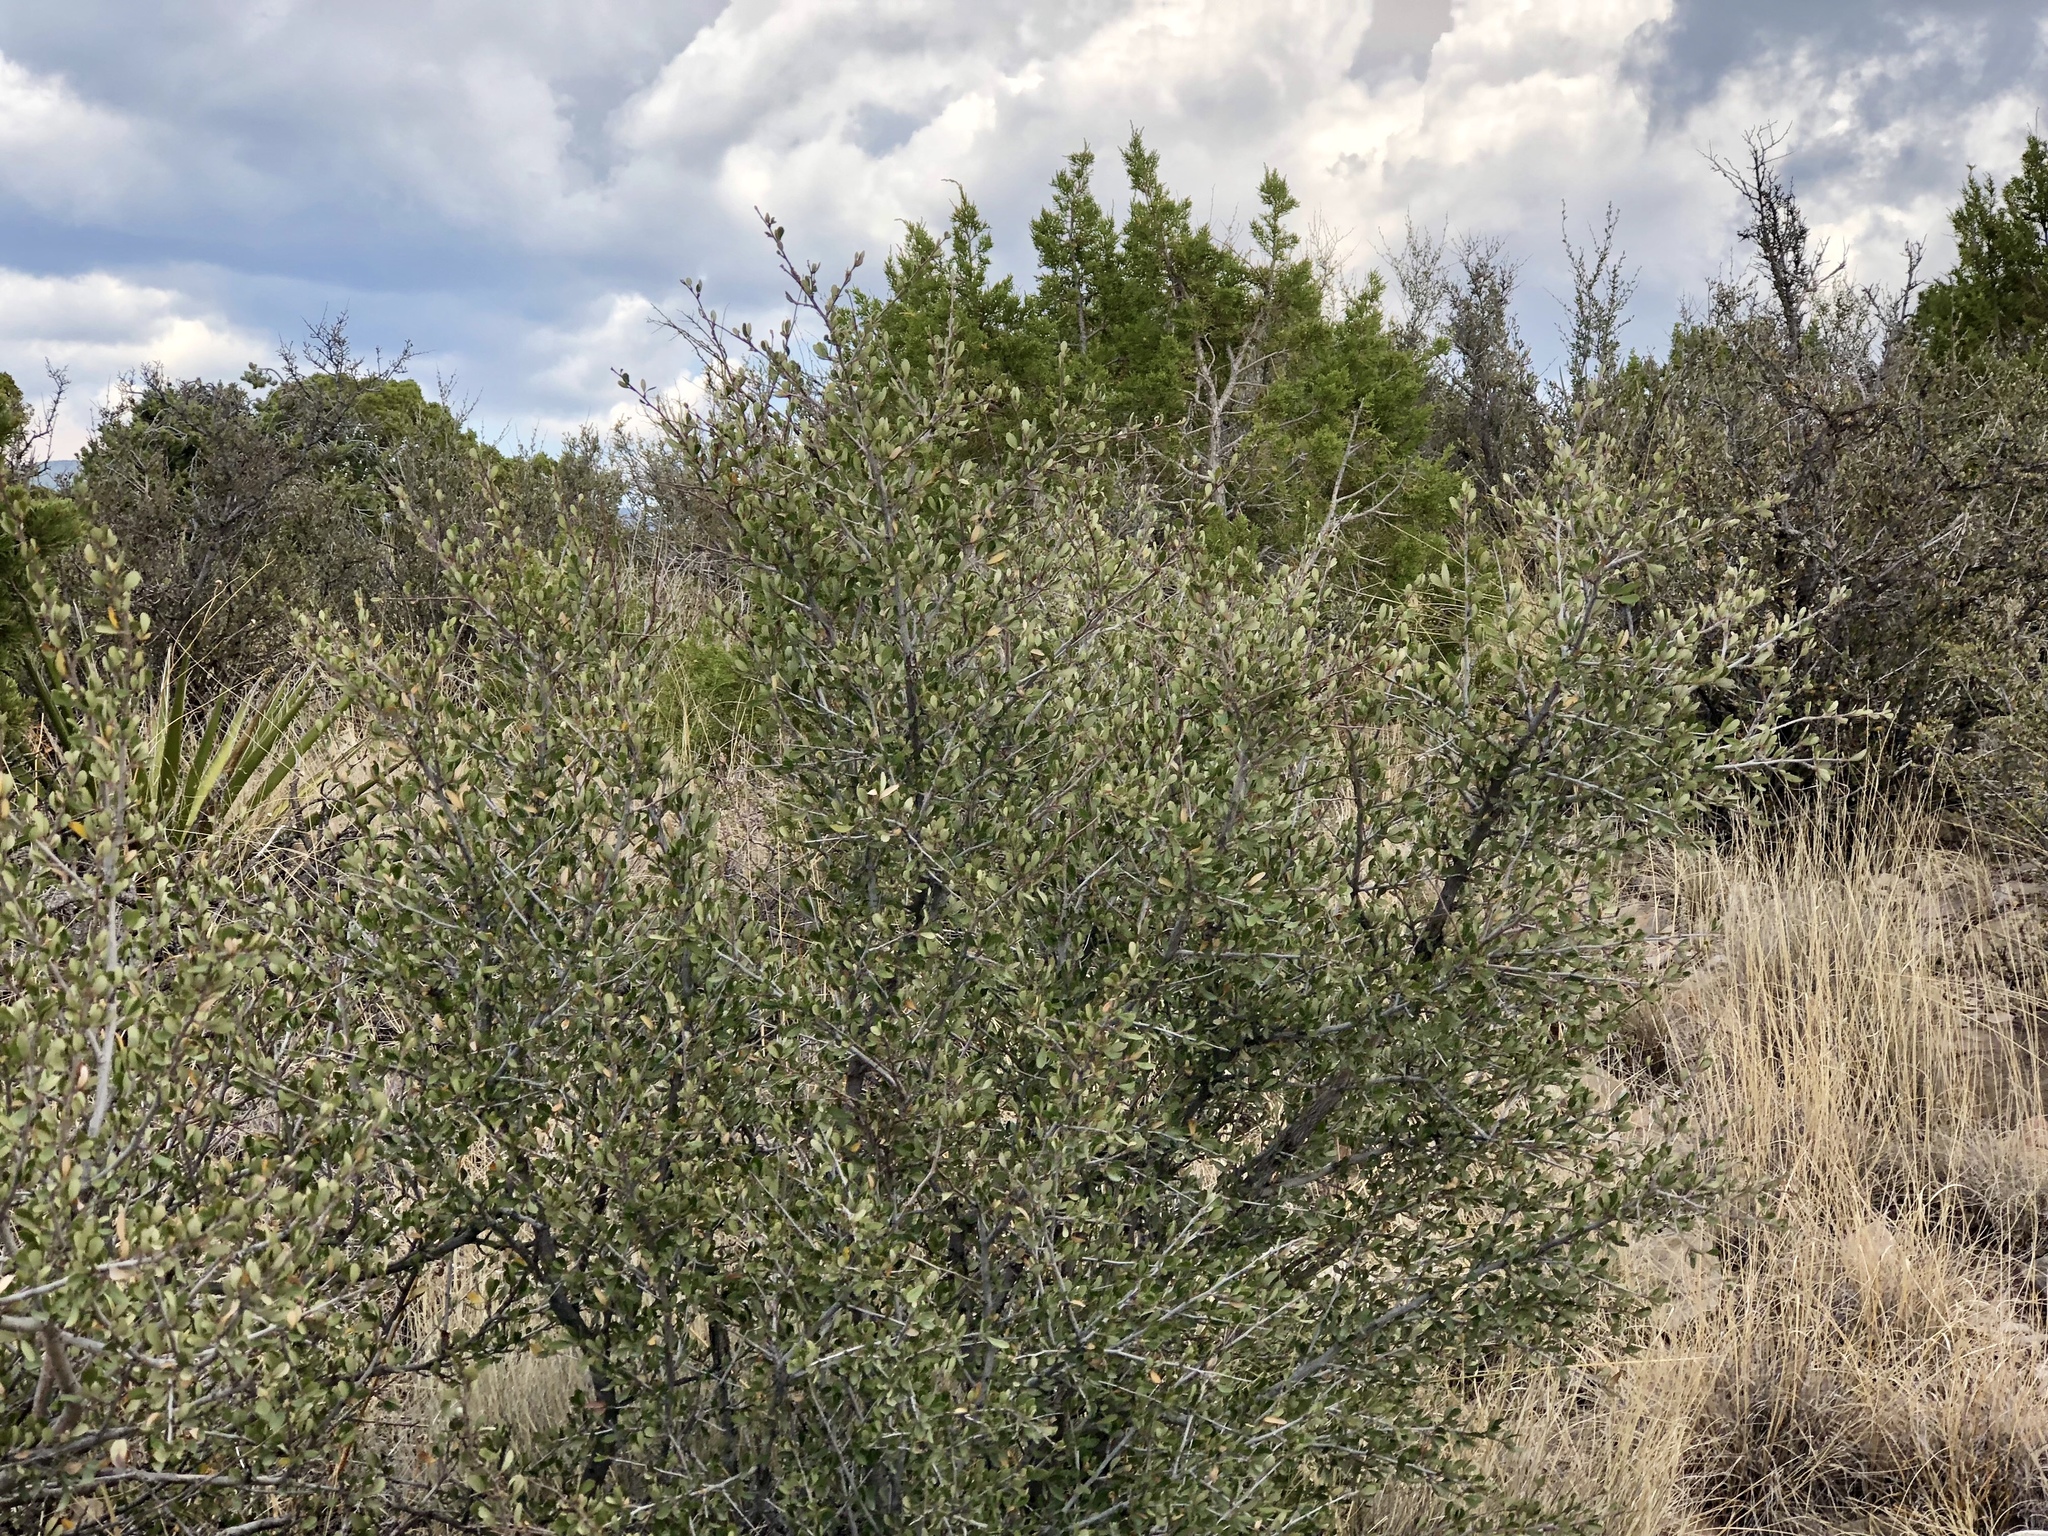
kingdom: Plantae
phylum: Tracheophyta
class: Magnoliopsida
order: Rosales
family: Rosaceae
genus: Cercocarpus
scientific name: Cercocarpus breviflorus
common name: Wright's mountain-mahogany
